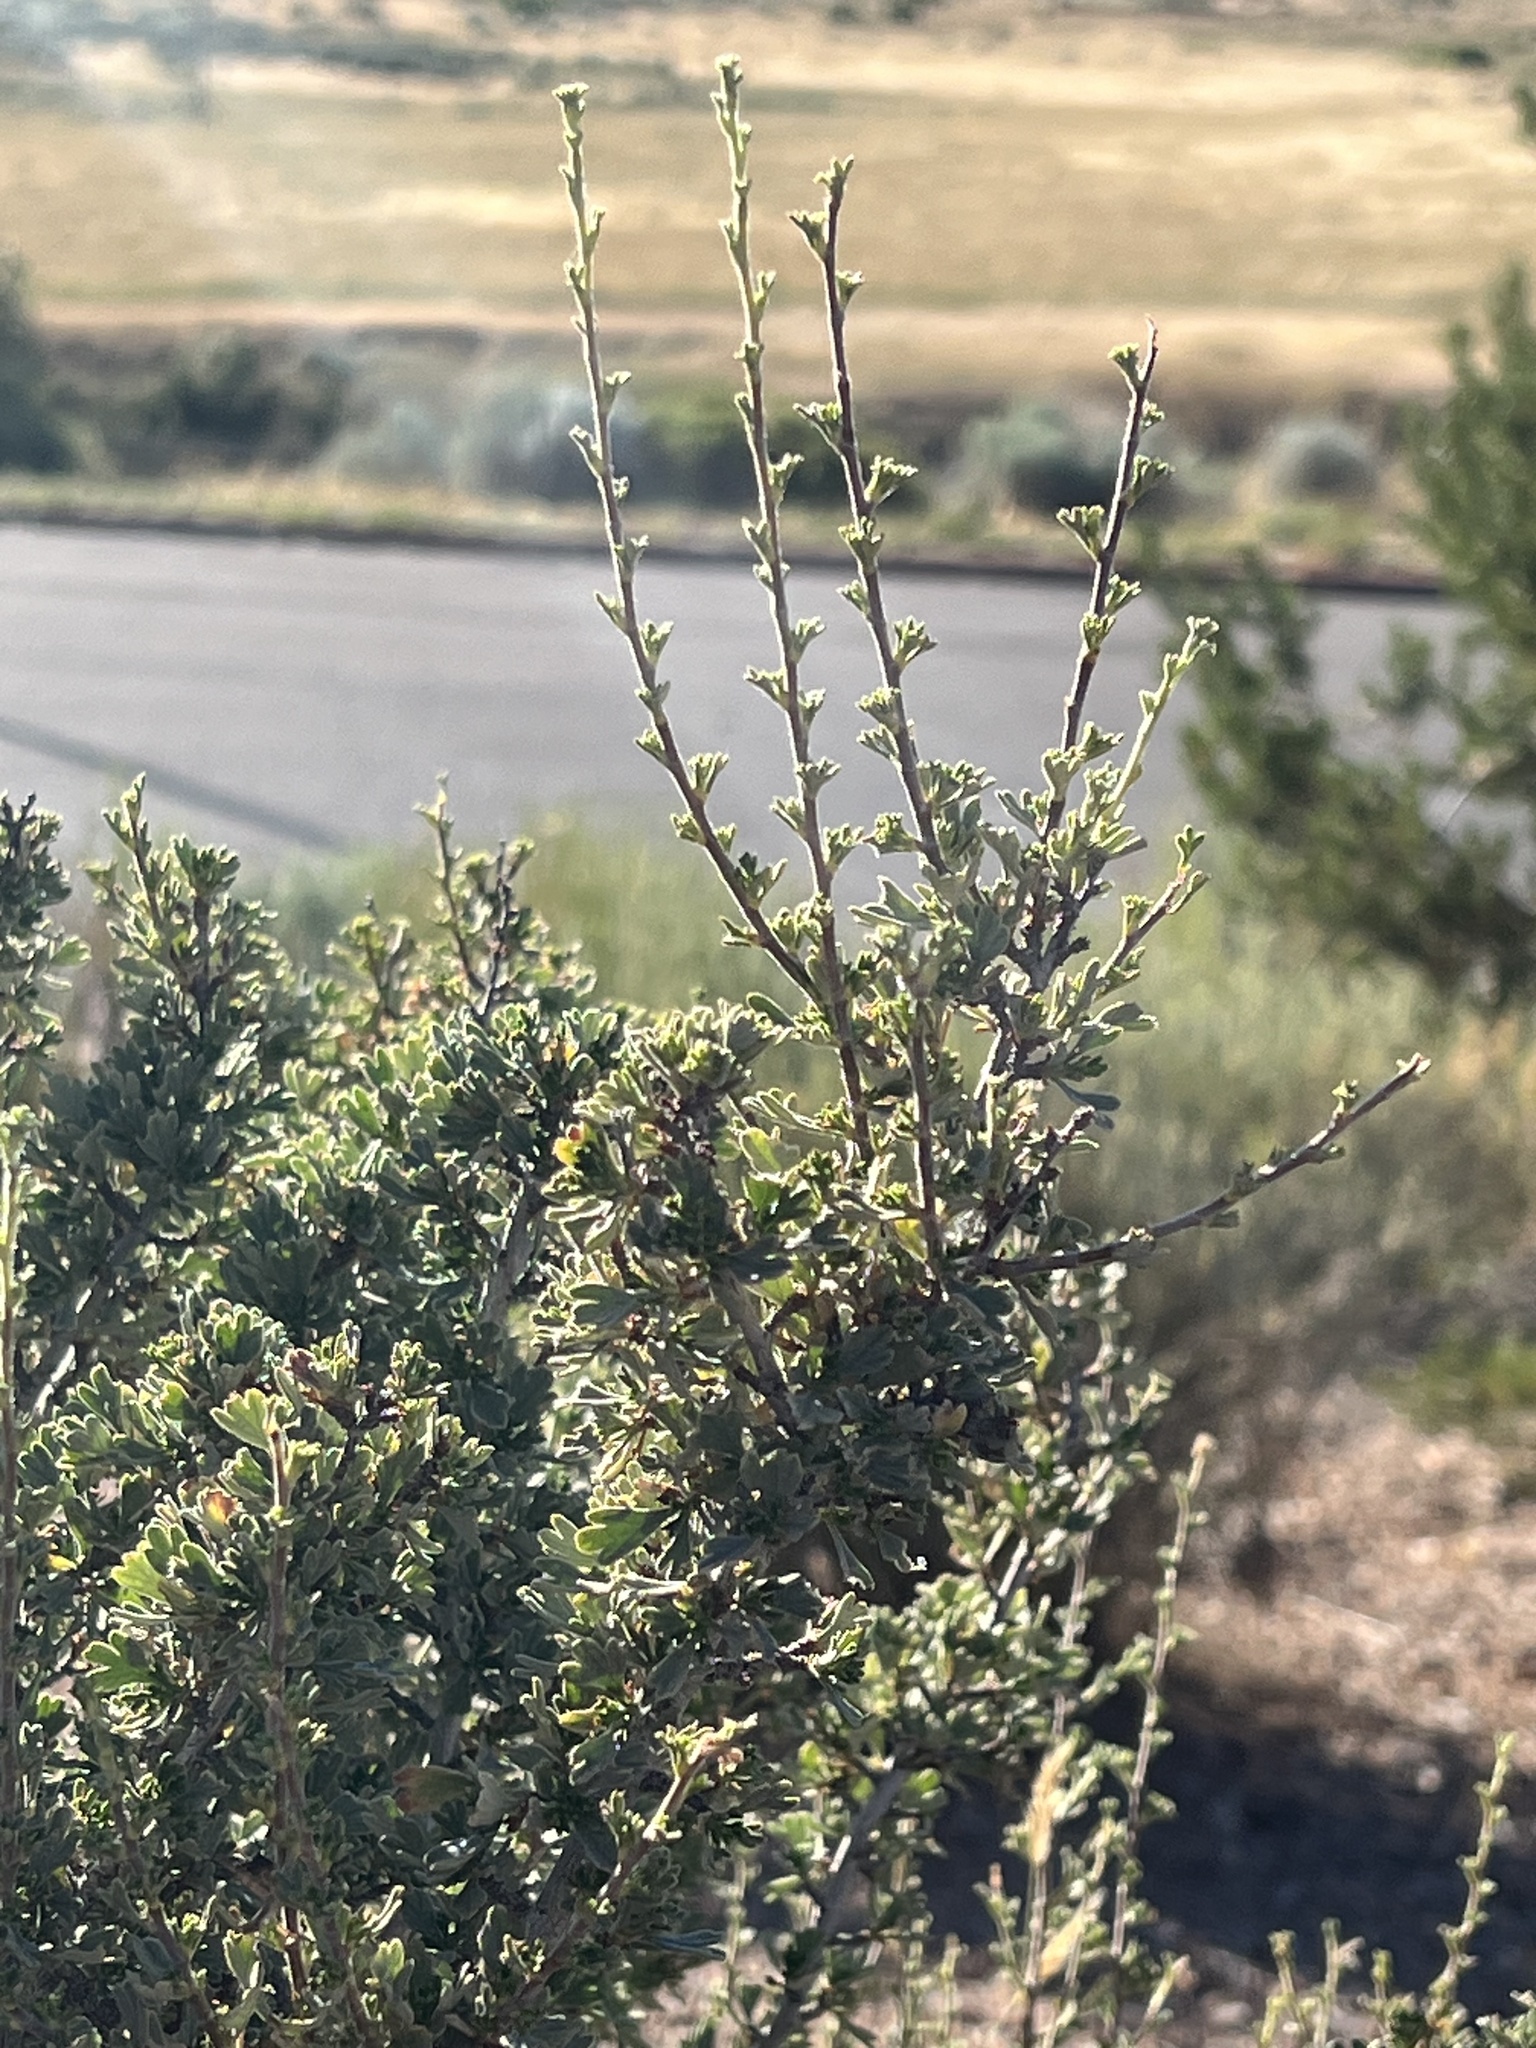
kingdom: Plantae
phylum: Tracheophyta
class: Magnoliopsida
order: Rosales
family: Rosaceae
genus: Purshia
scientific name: Purshia tridentata
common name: Antelope bitterbrush
